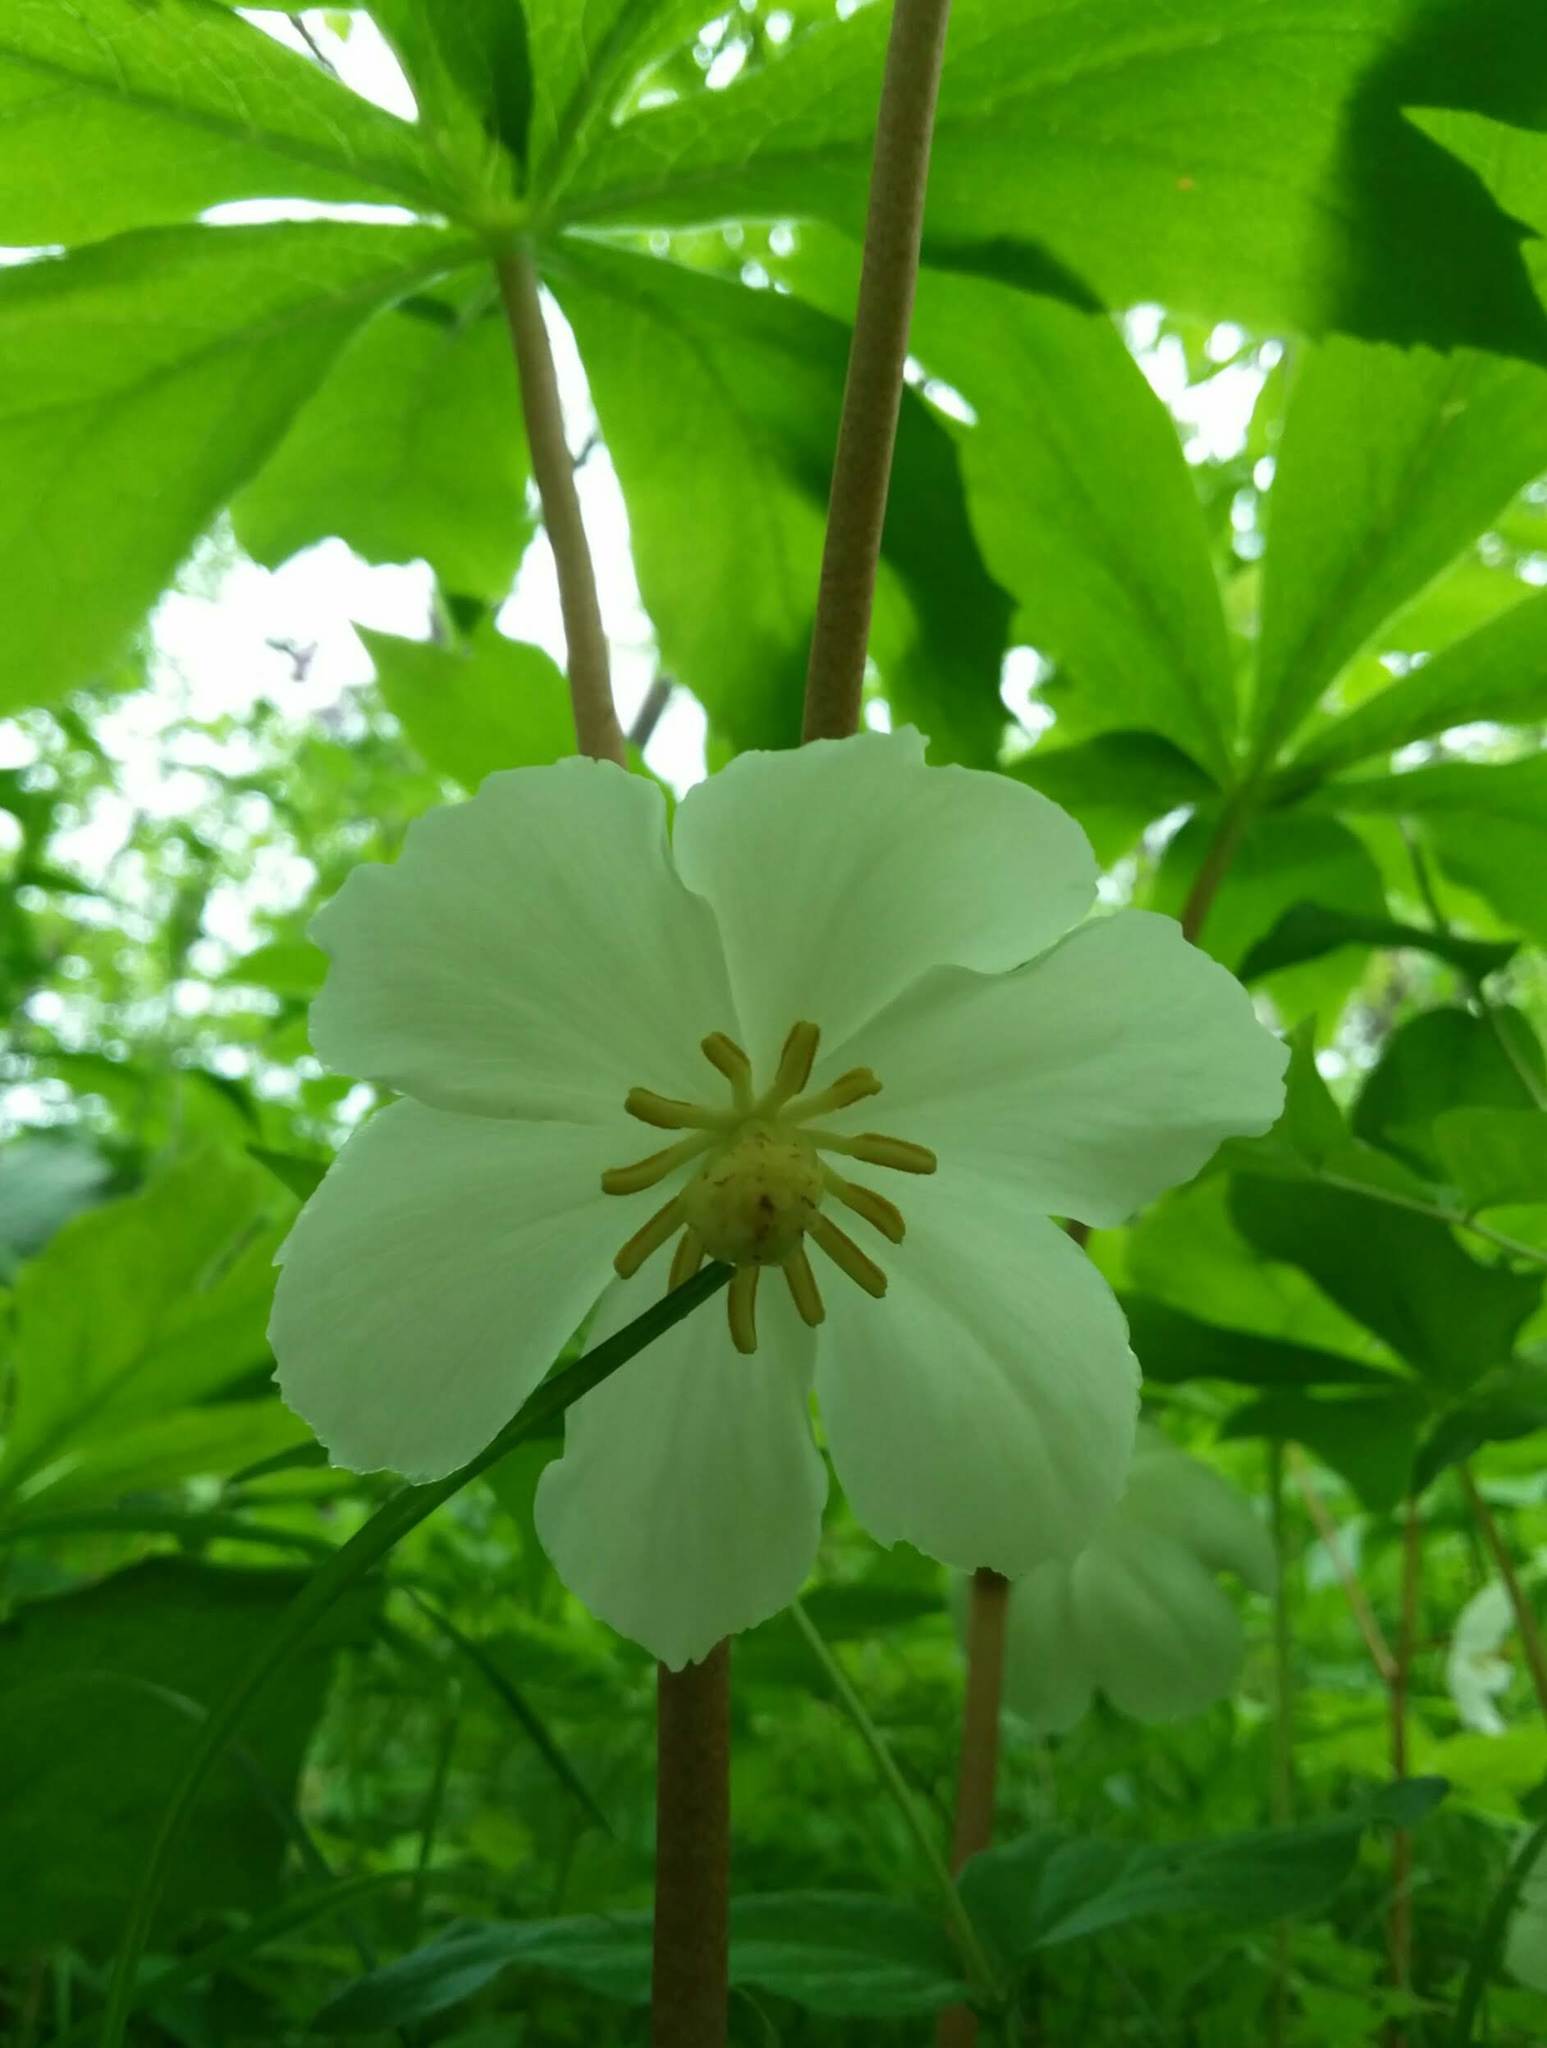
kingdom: Plantae
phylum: Tracheophyta
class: Magnoliopsida
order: Ranunculales
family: Berberidaceae
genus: Podophyllum
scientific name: Podophyllum peltatum
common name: Wild mandrake
